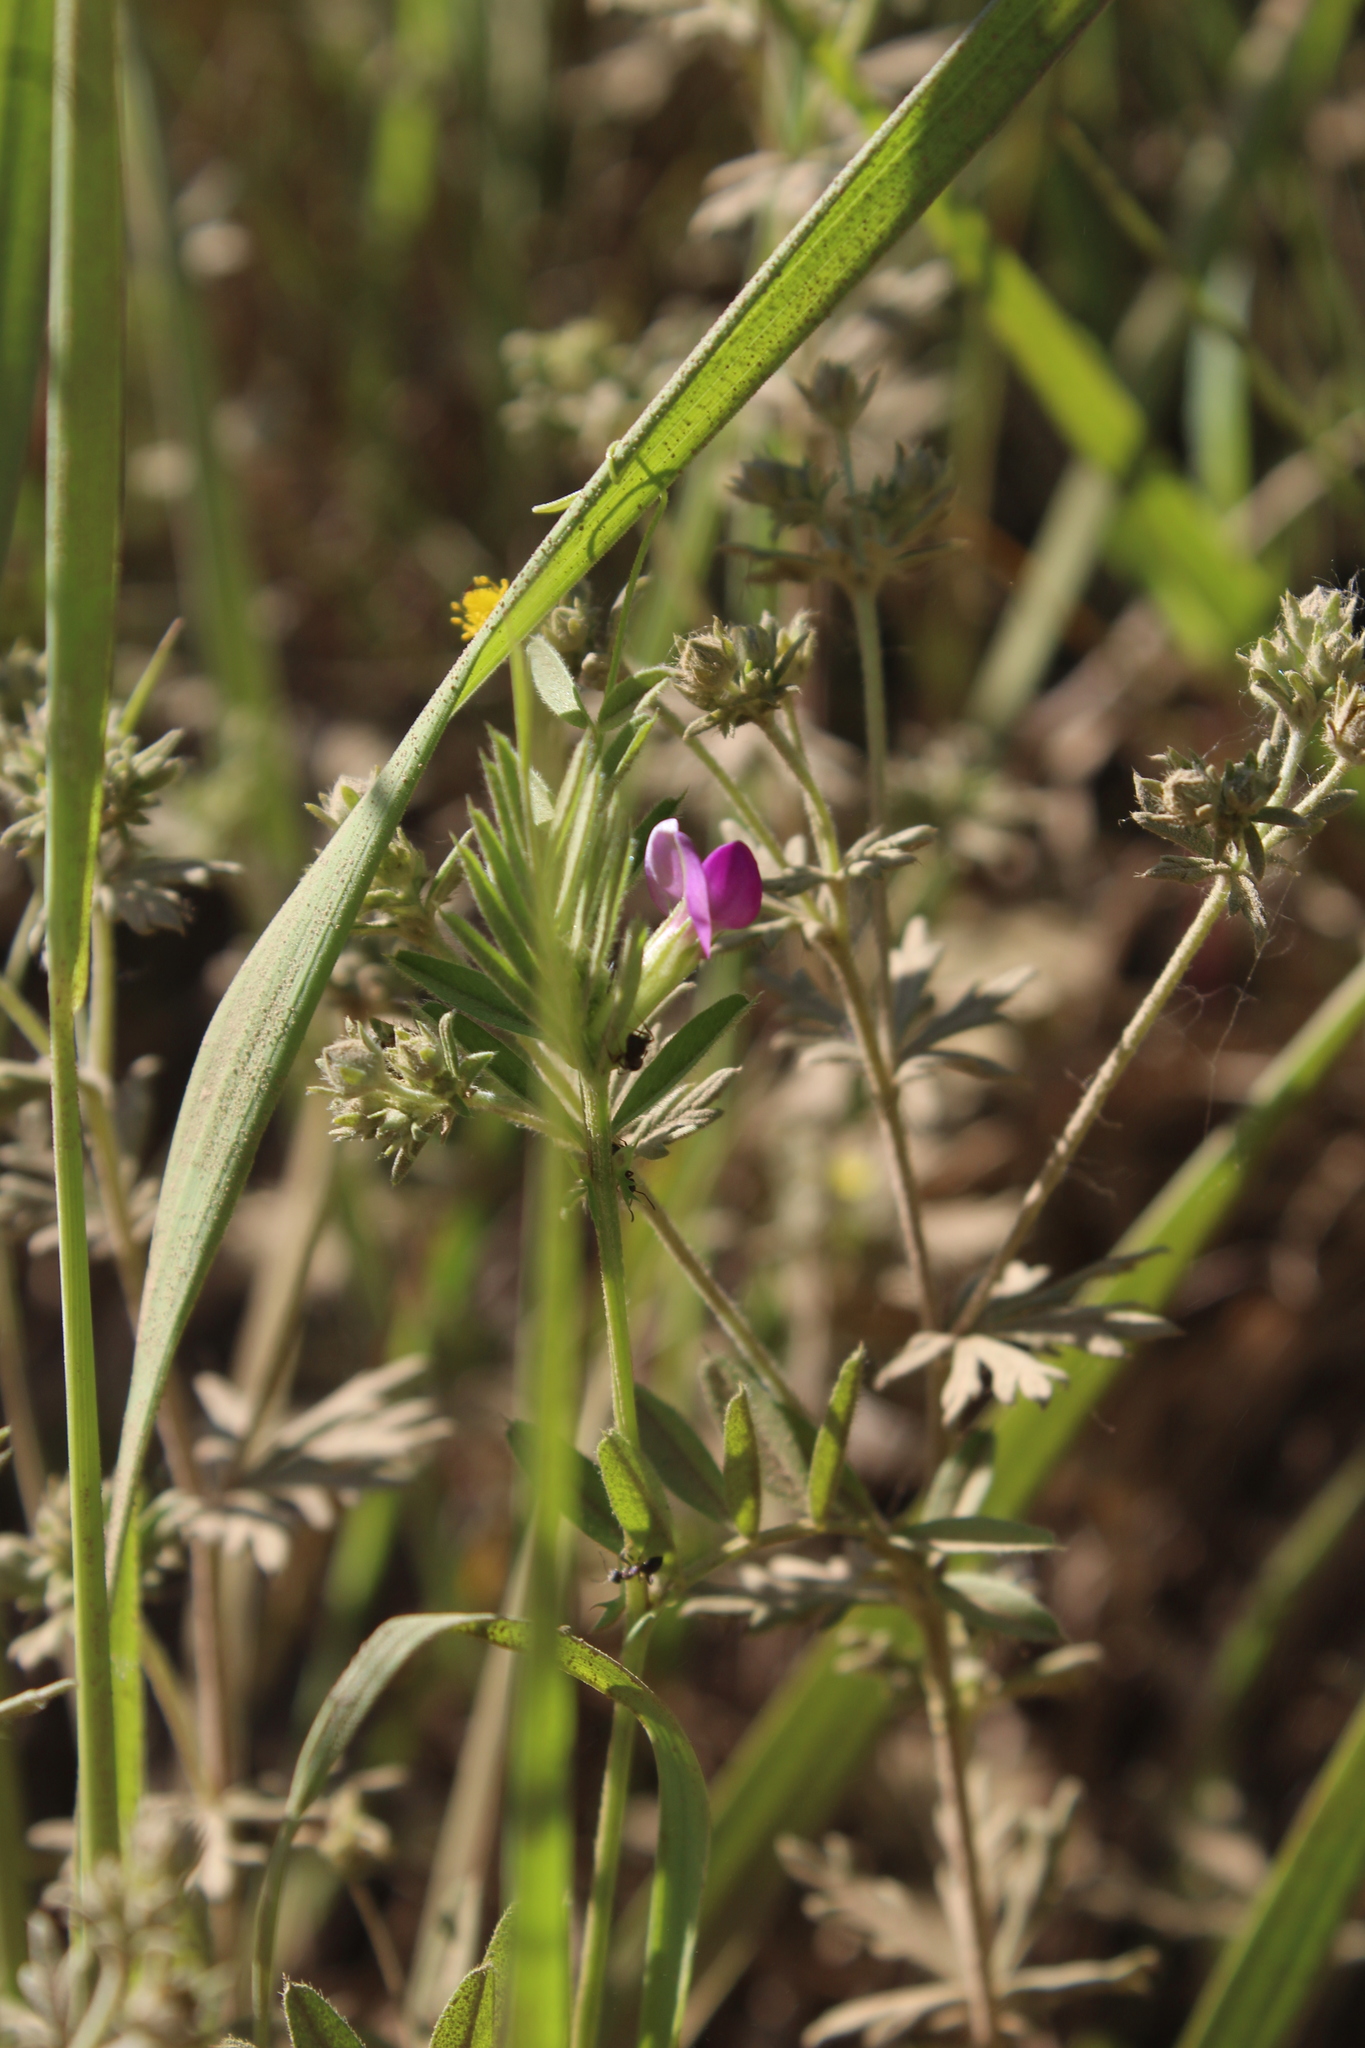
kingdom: Plantae
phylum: Tracheophyta
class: Magnoliopsida
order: Fabales
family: Fabaceae
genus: Vicia
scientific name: Vicia sativa
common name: Garden vetch
